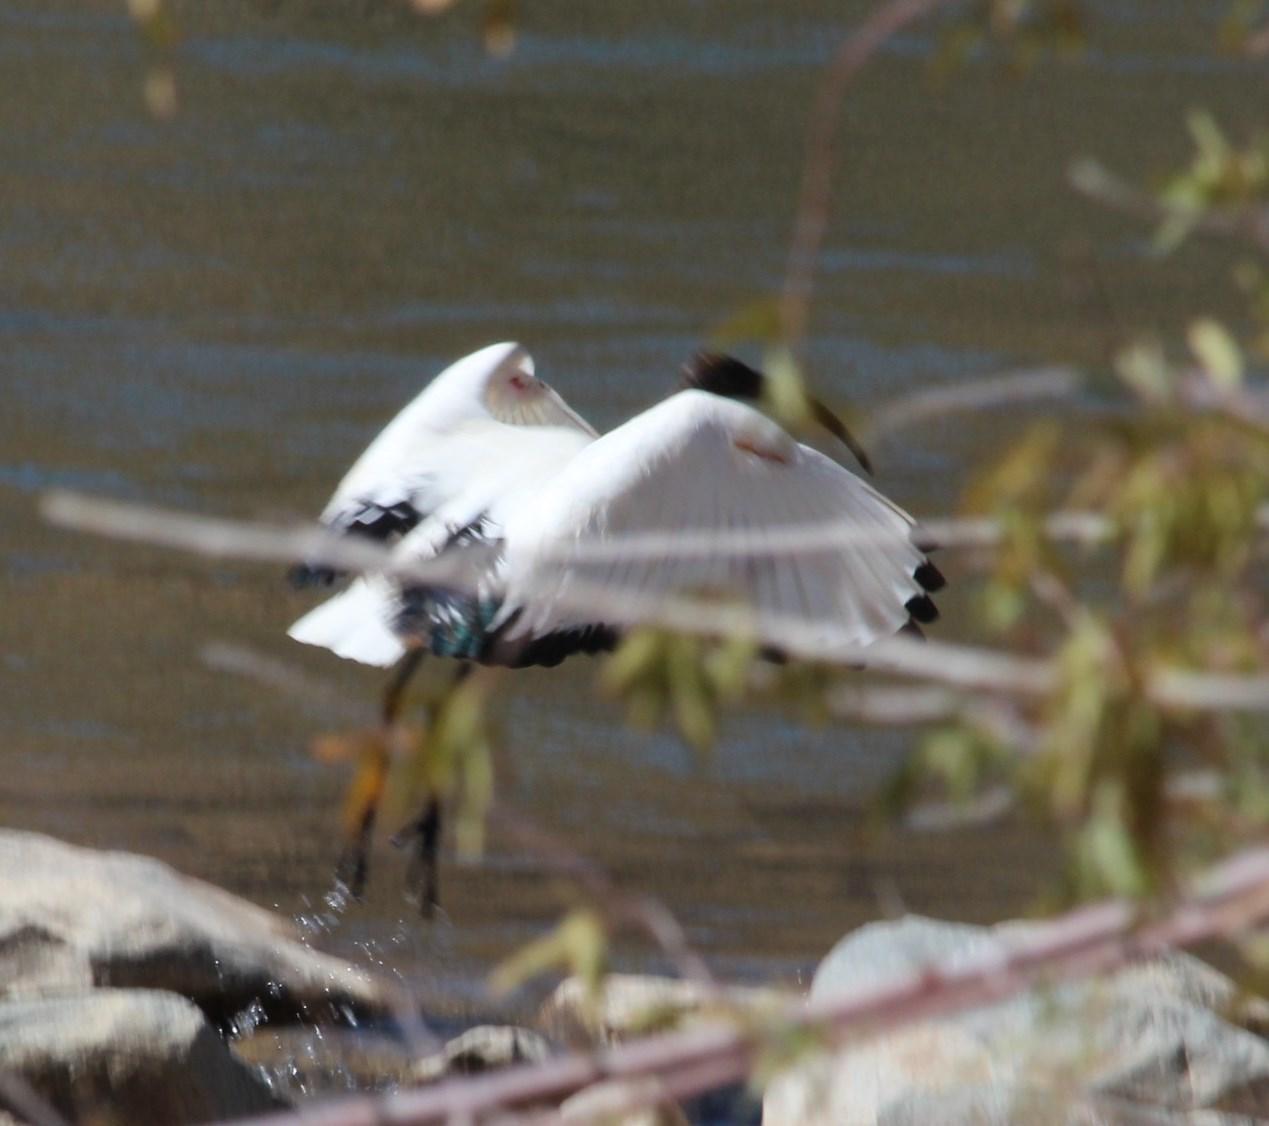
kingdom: Animalia
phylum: Chordata
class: Aves
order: Pelecaniformes
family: Threskiornithidae
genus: Threskiornis
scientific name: Threskiornis aethiopicus
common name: Sacred ibis
